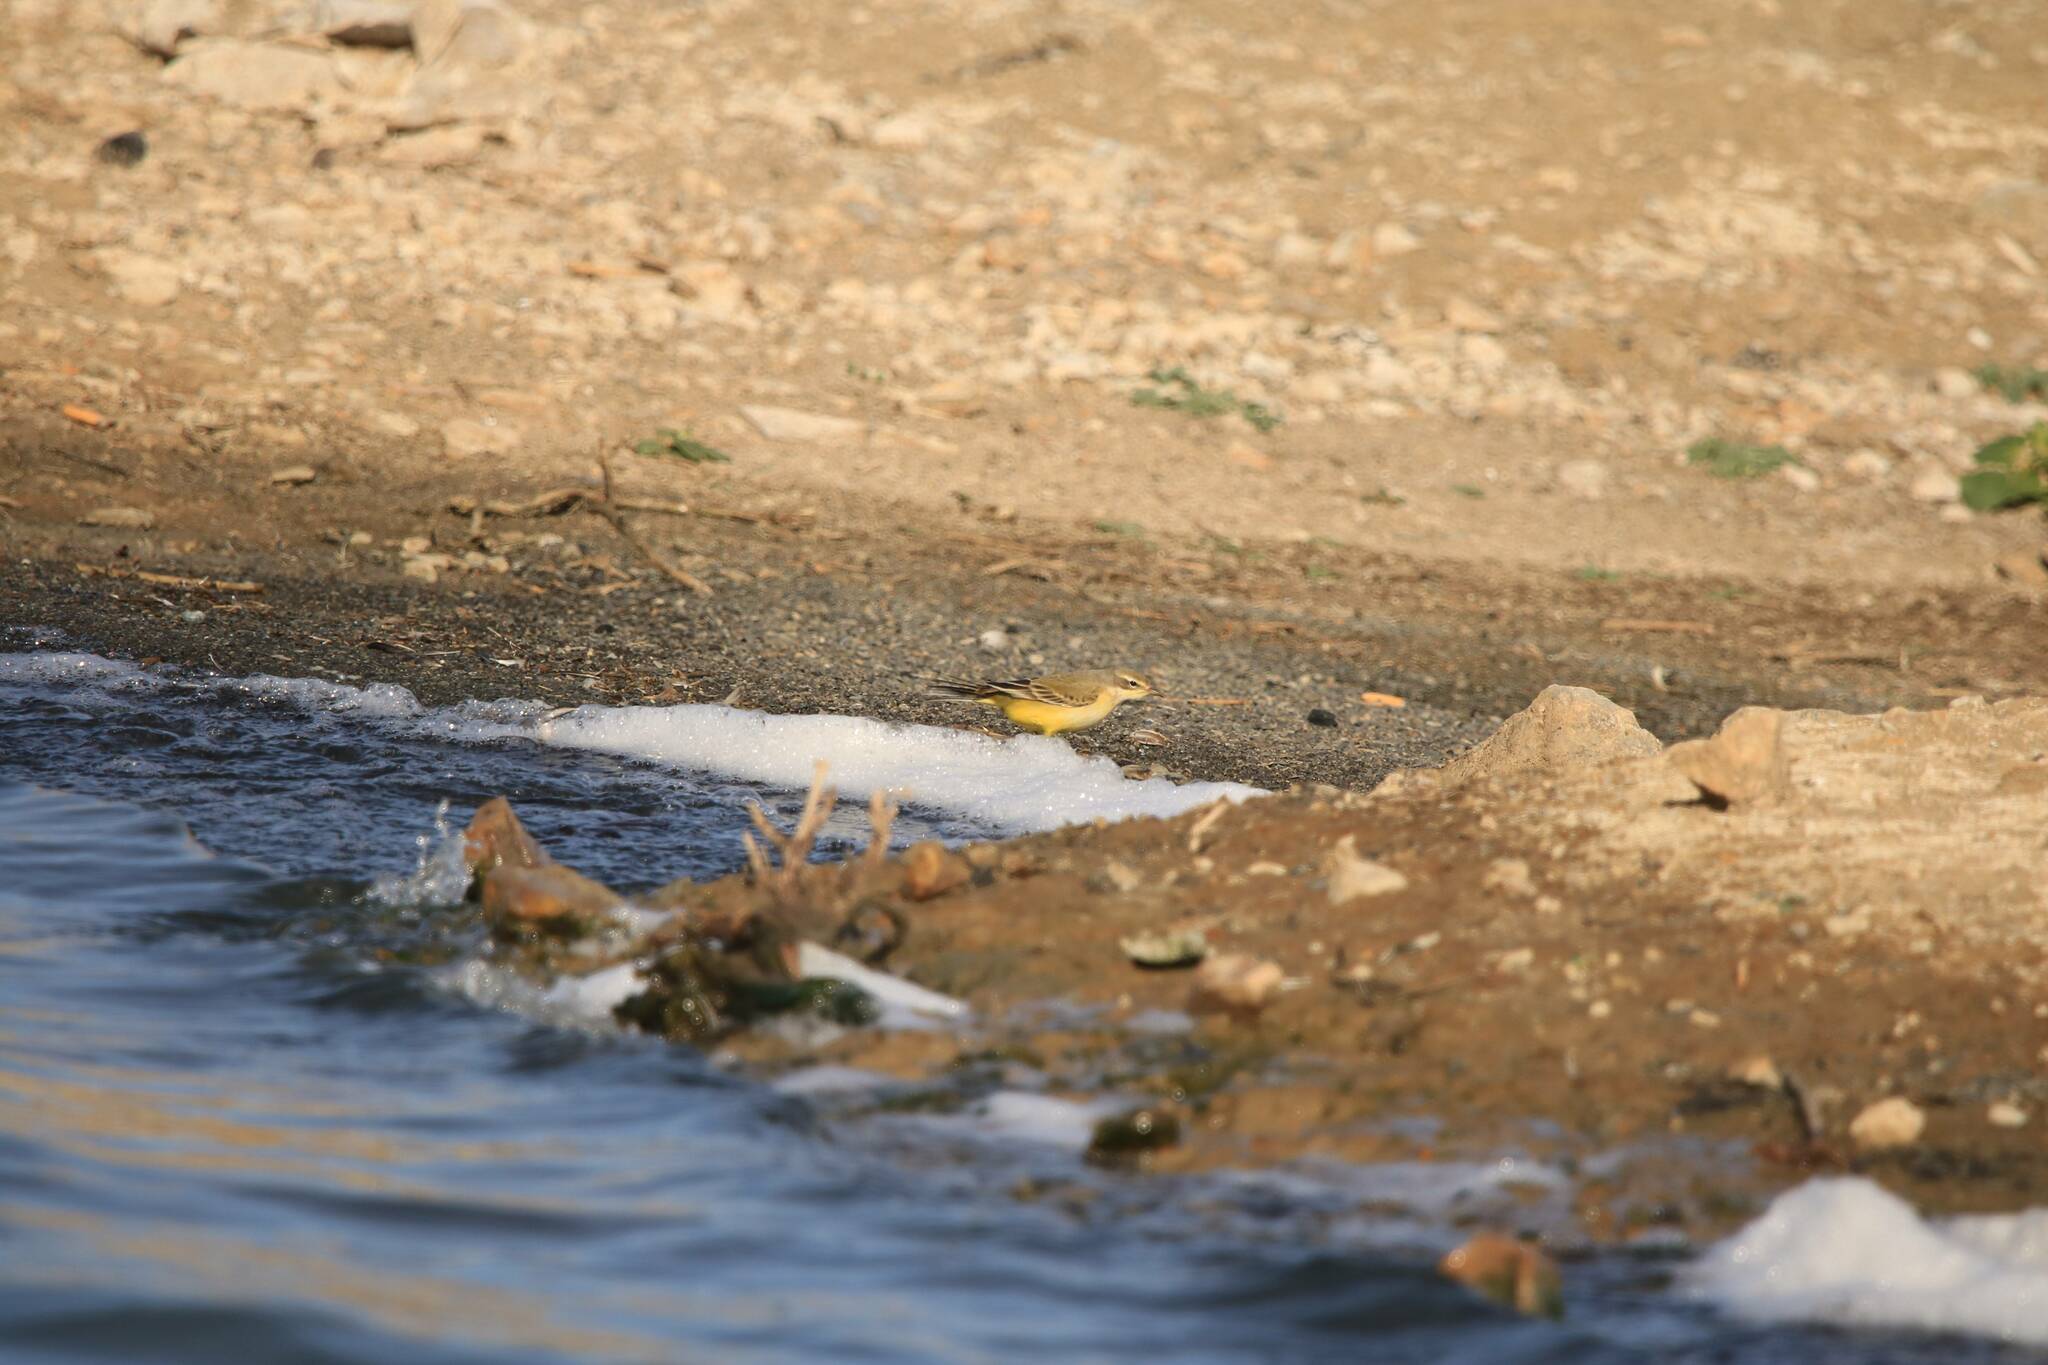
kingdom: Animalia
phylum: Chordata
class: Aves
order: Passeriformes
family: Motacillidae
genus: Motacilla
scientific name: Motacilla flava
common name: Western yellow wagtail
